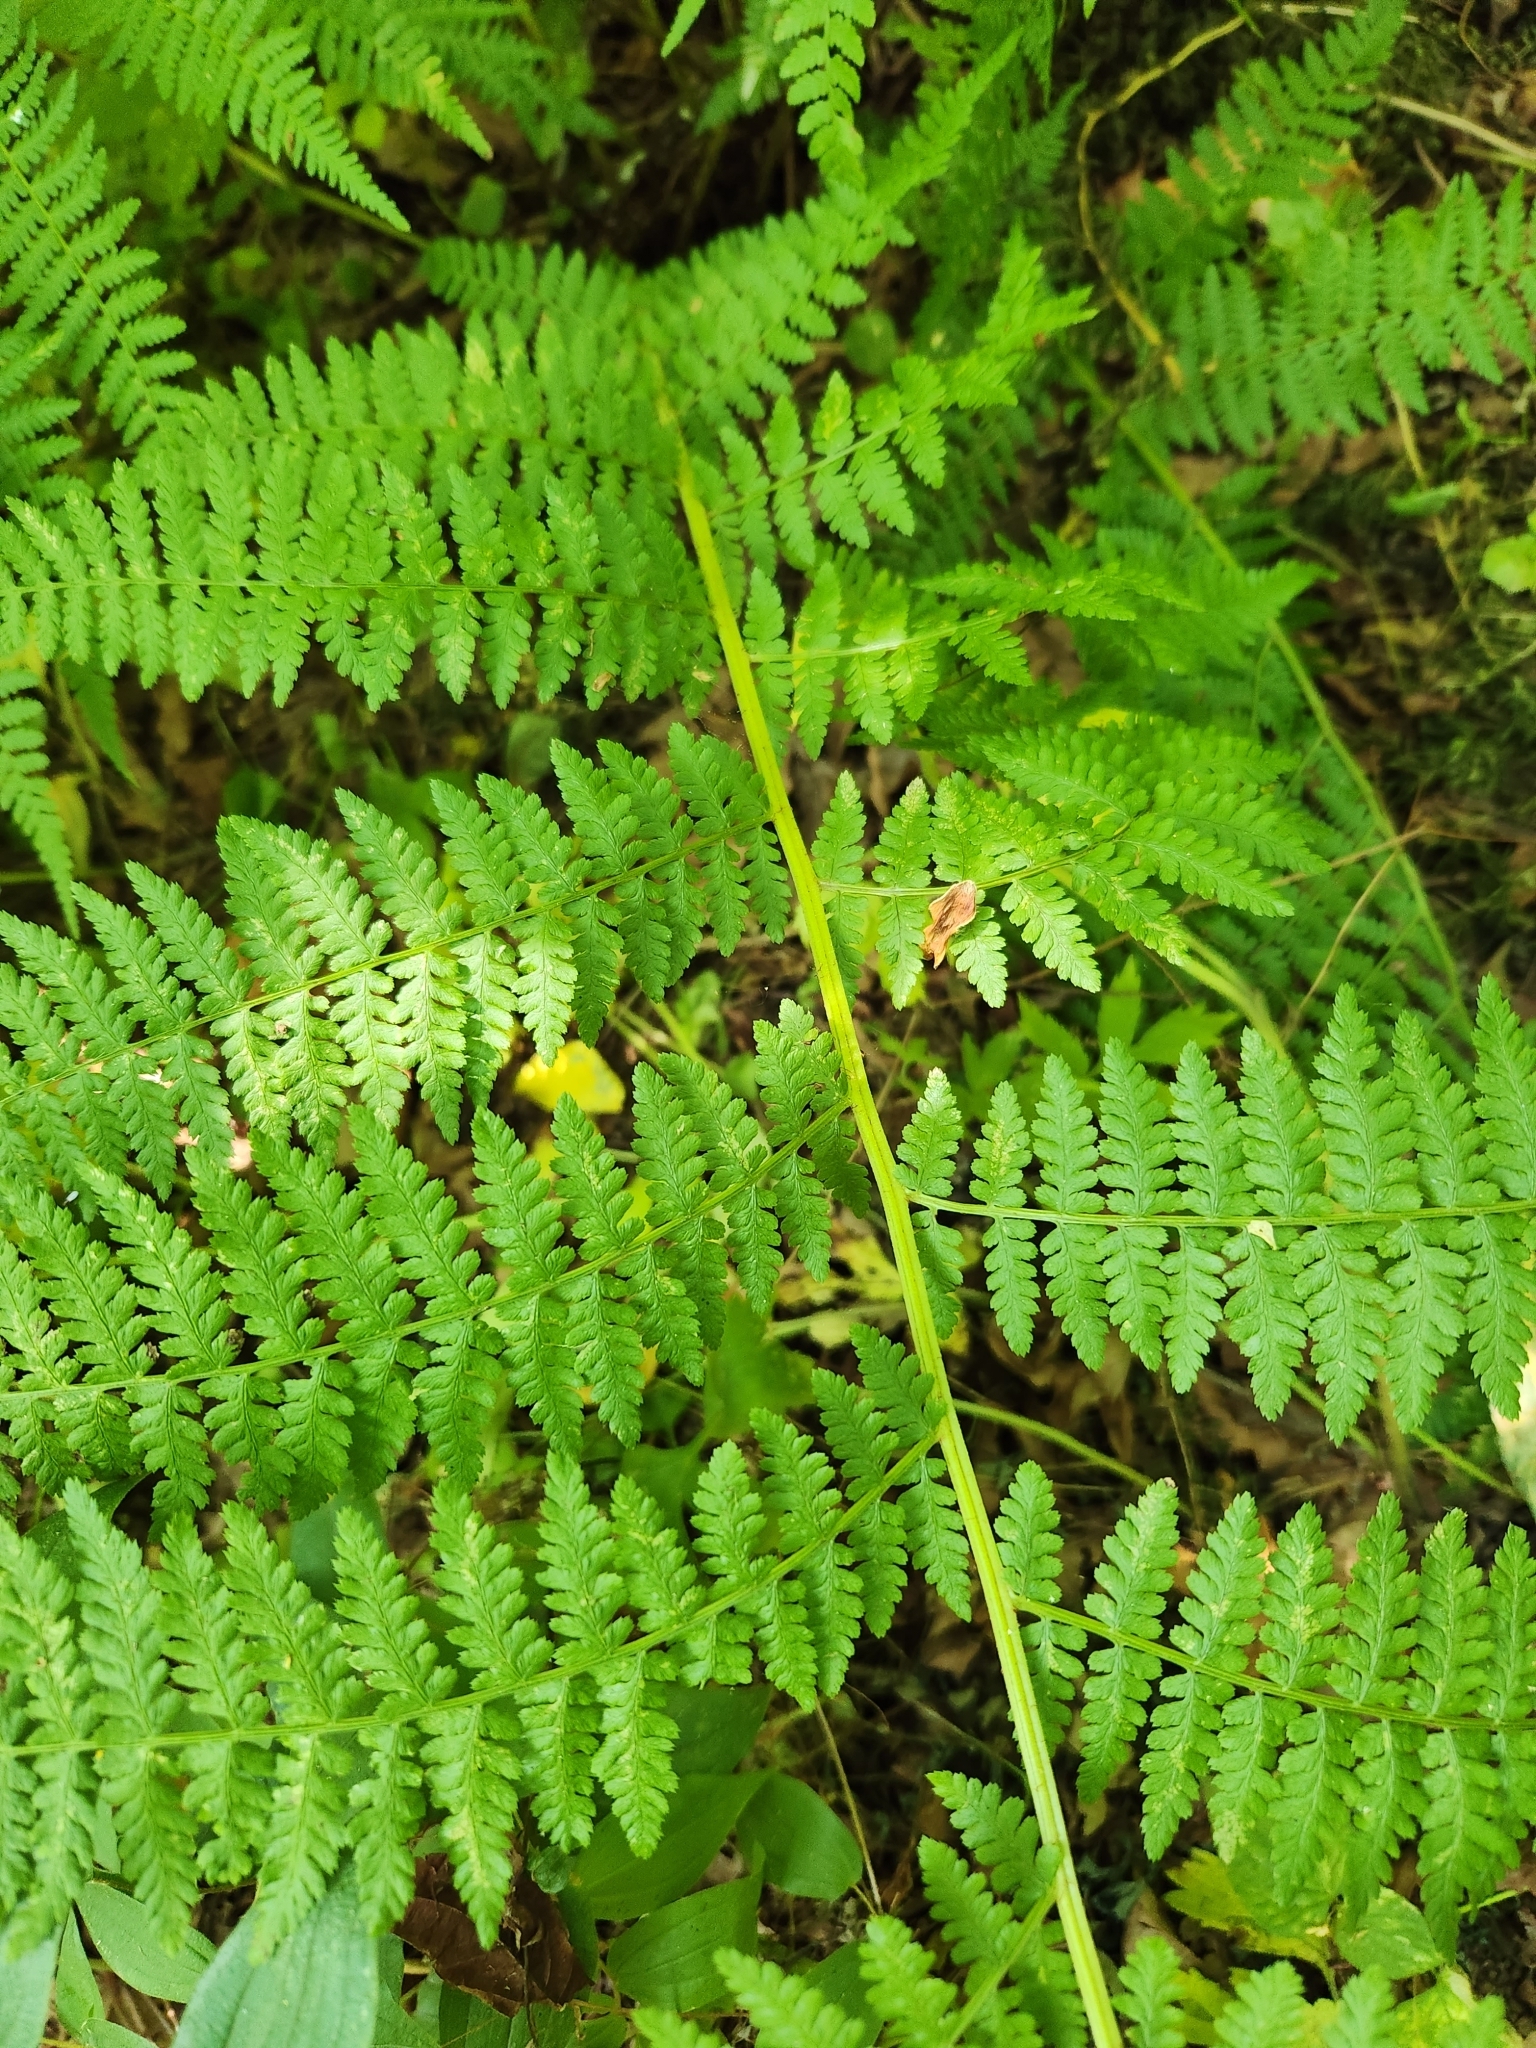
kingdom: Plantae
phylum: Tracheophyta
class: Polypodiopsida
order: Polypodiales
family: Athyriaceae
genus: Athyrium
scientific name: Athyrium filix-femina
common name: Lady fern
